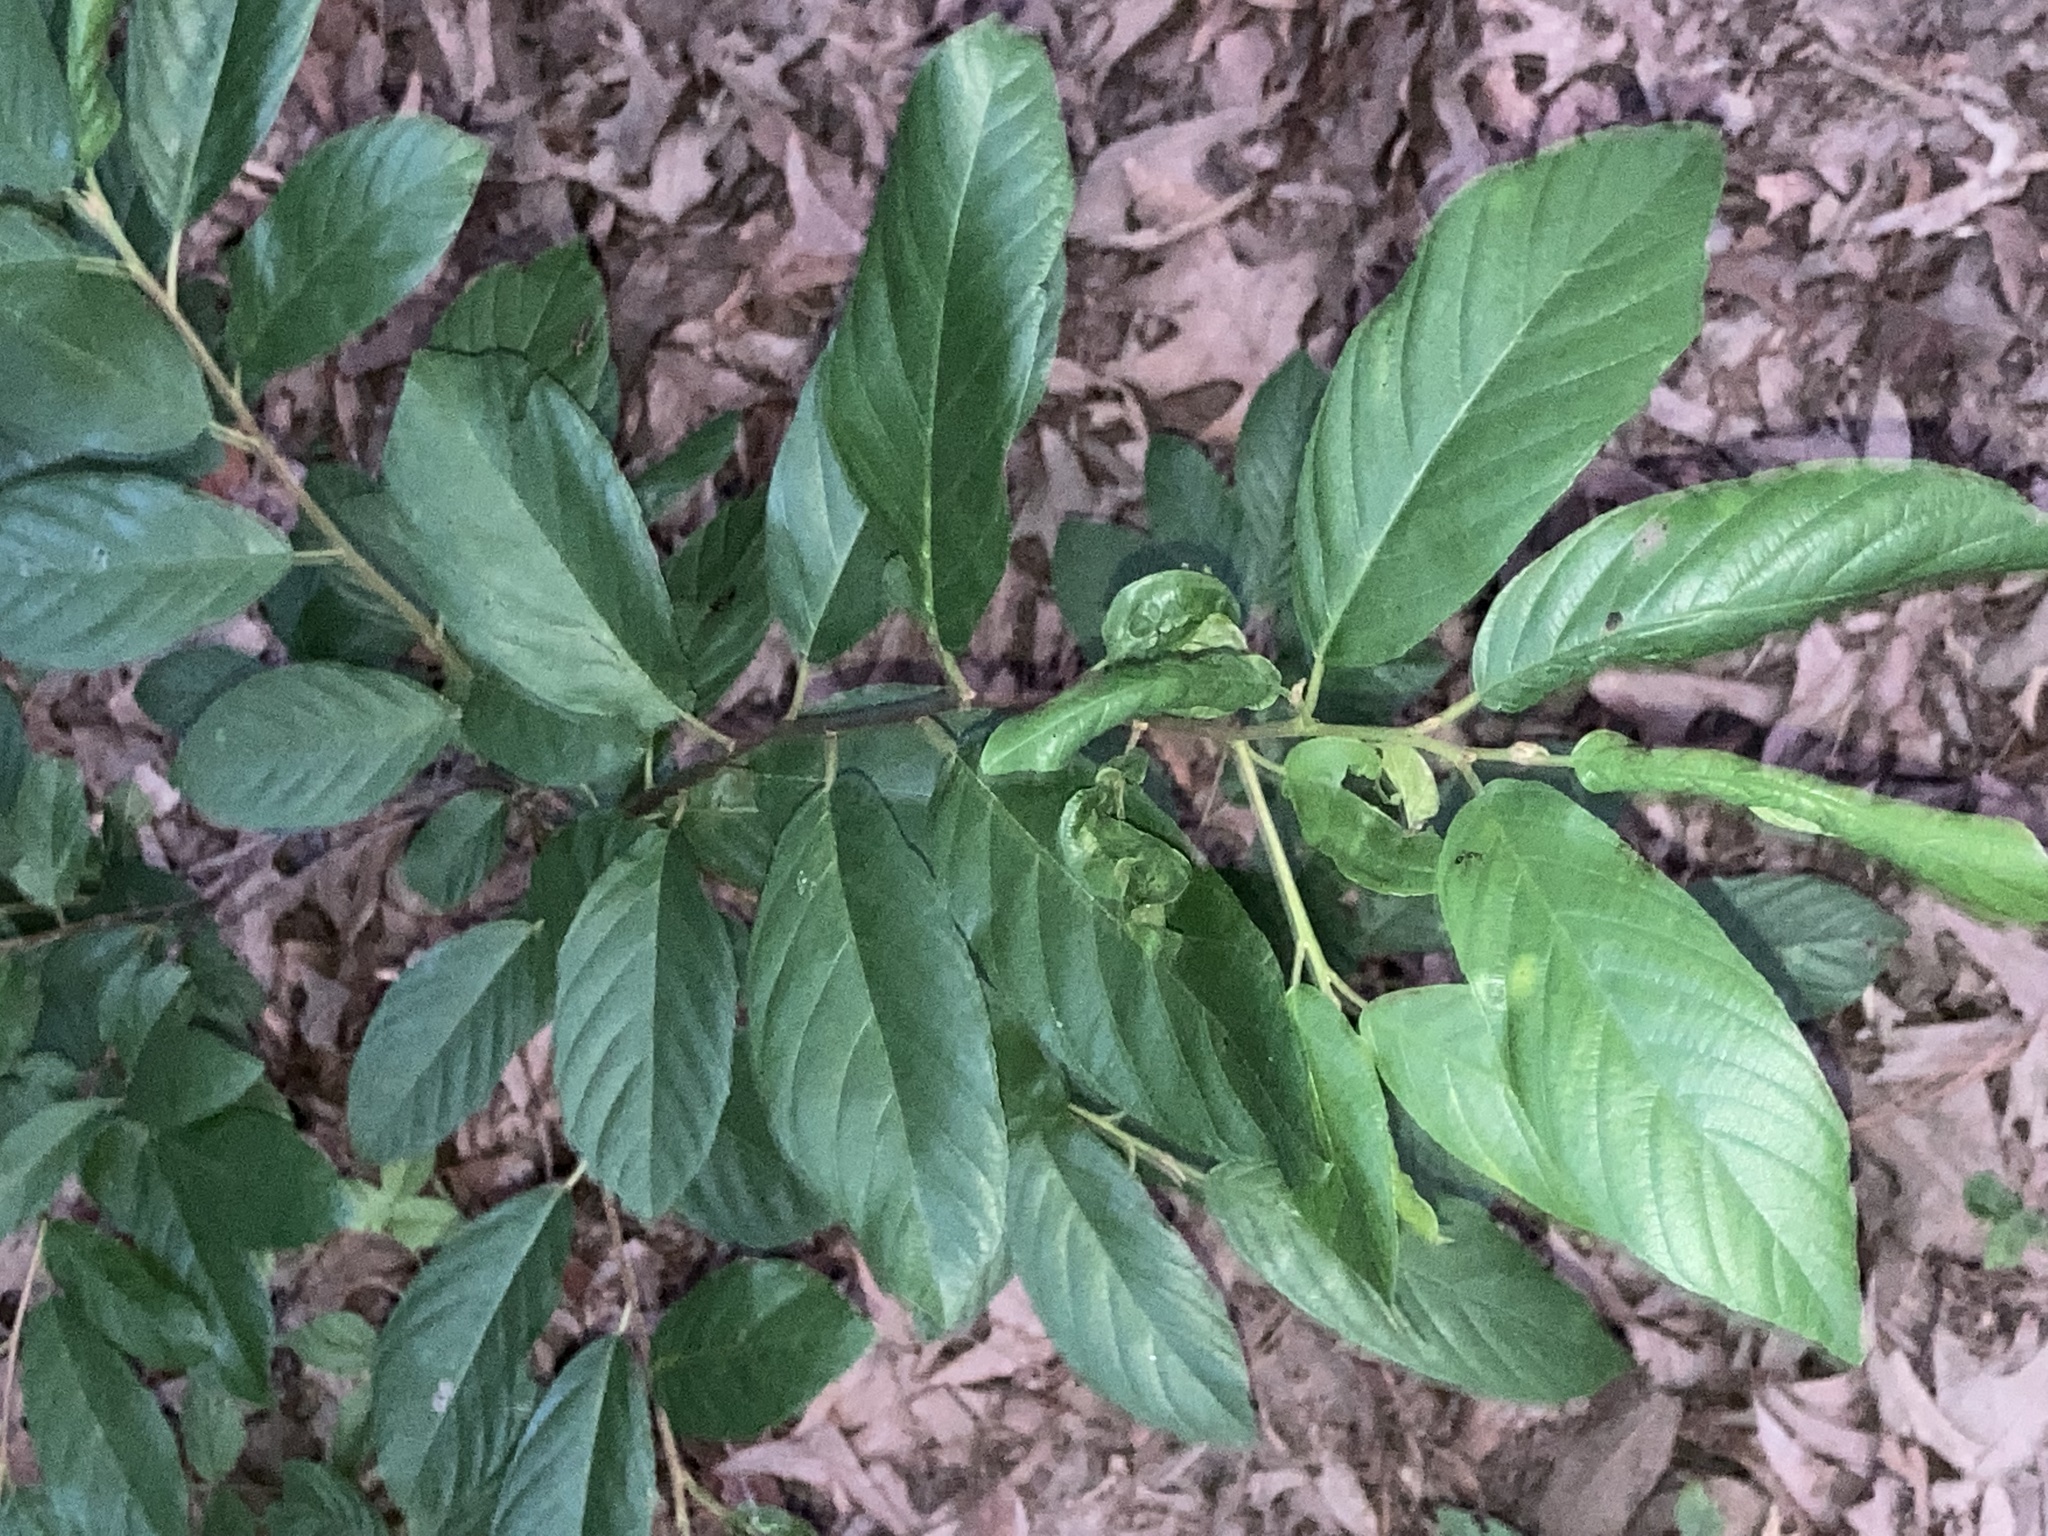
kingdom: Plantae
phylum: Tracheophyta
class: Magnoliopsida
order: Rosales
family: Rhamnaceae
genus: Frangula
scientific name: Frangula caroliniana
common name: Carolina buckthorn
